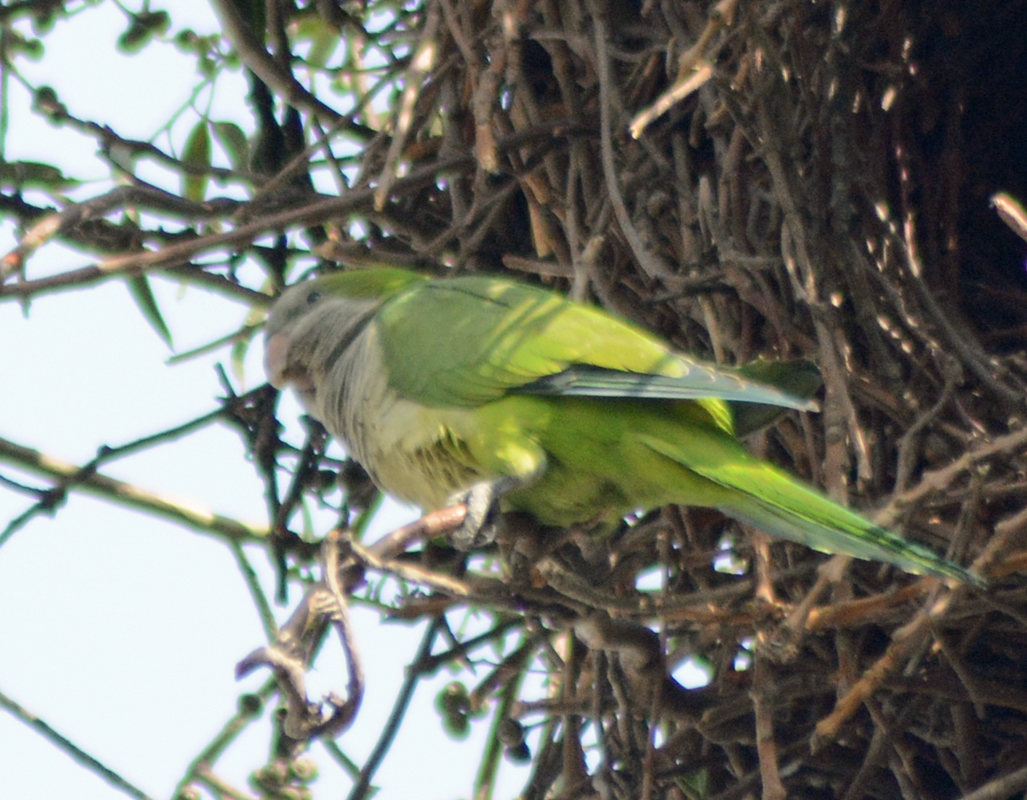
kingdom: Animalia
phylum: Chordata
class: Aves
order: Psittaciformes
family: Psittacidae
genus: Myiopsitta
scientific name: Myiopsitta monachus
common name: Monk parakeet
